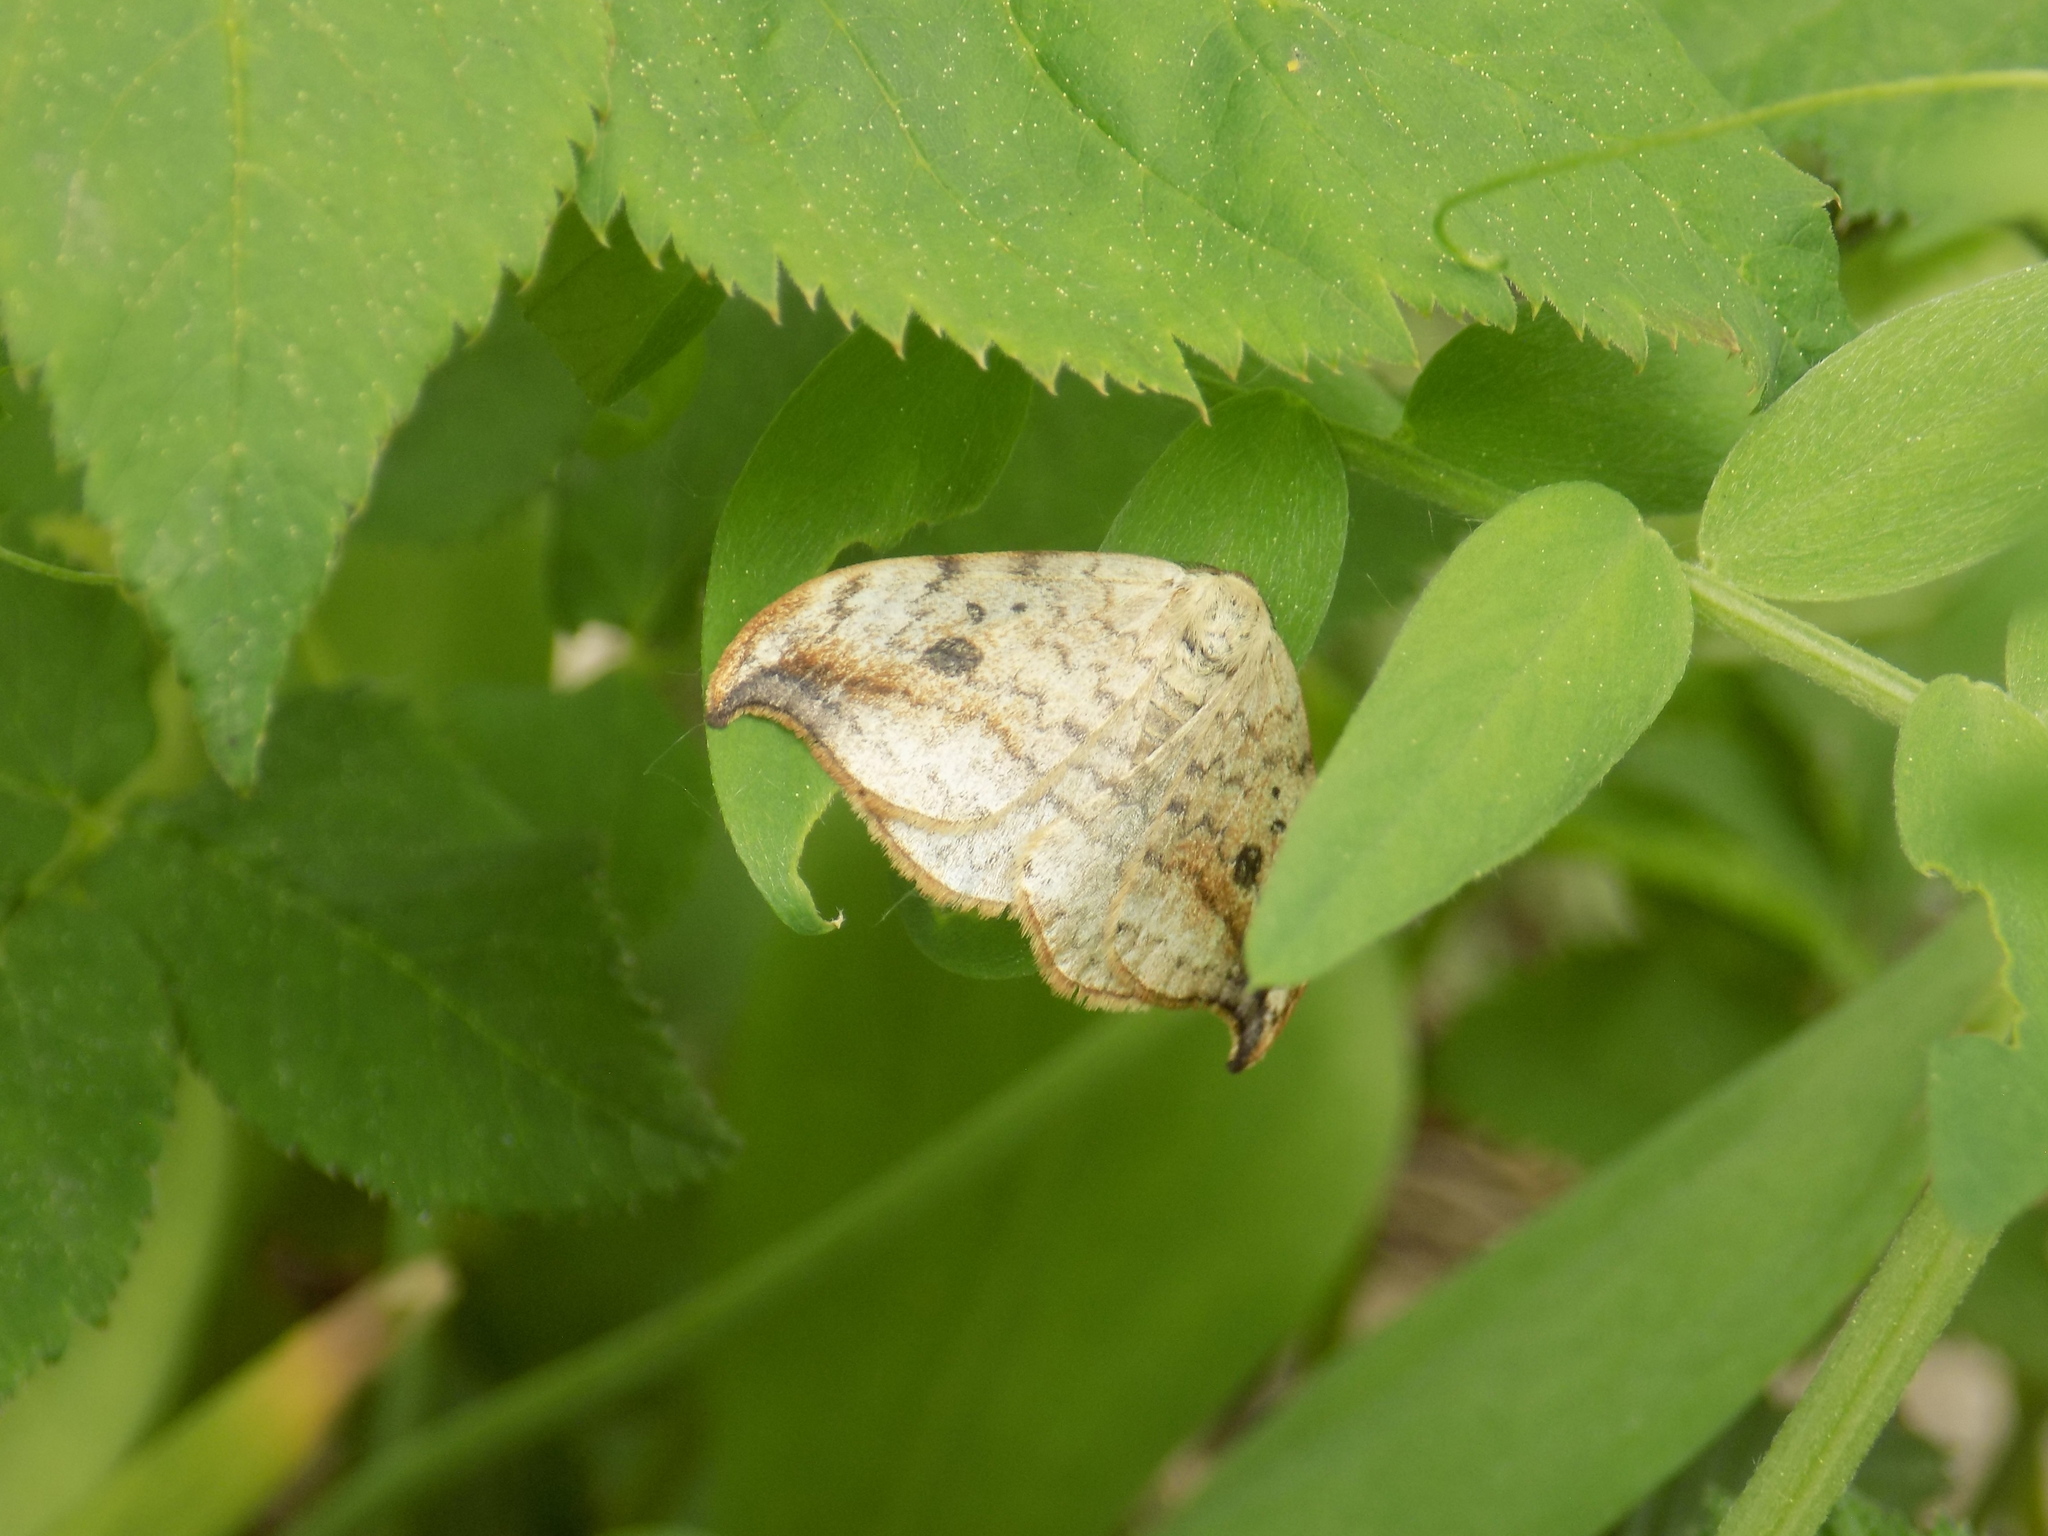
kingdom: Animalia
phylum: Arthropoda
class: Insecta
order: Lepidoptera
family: Drepanidae
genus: Drepana
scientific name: Drepana falcataria
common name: Pebble hook-tip
